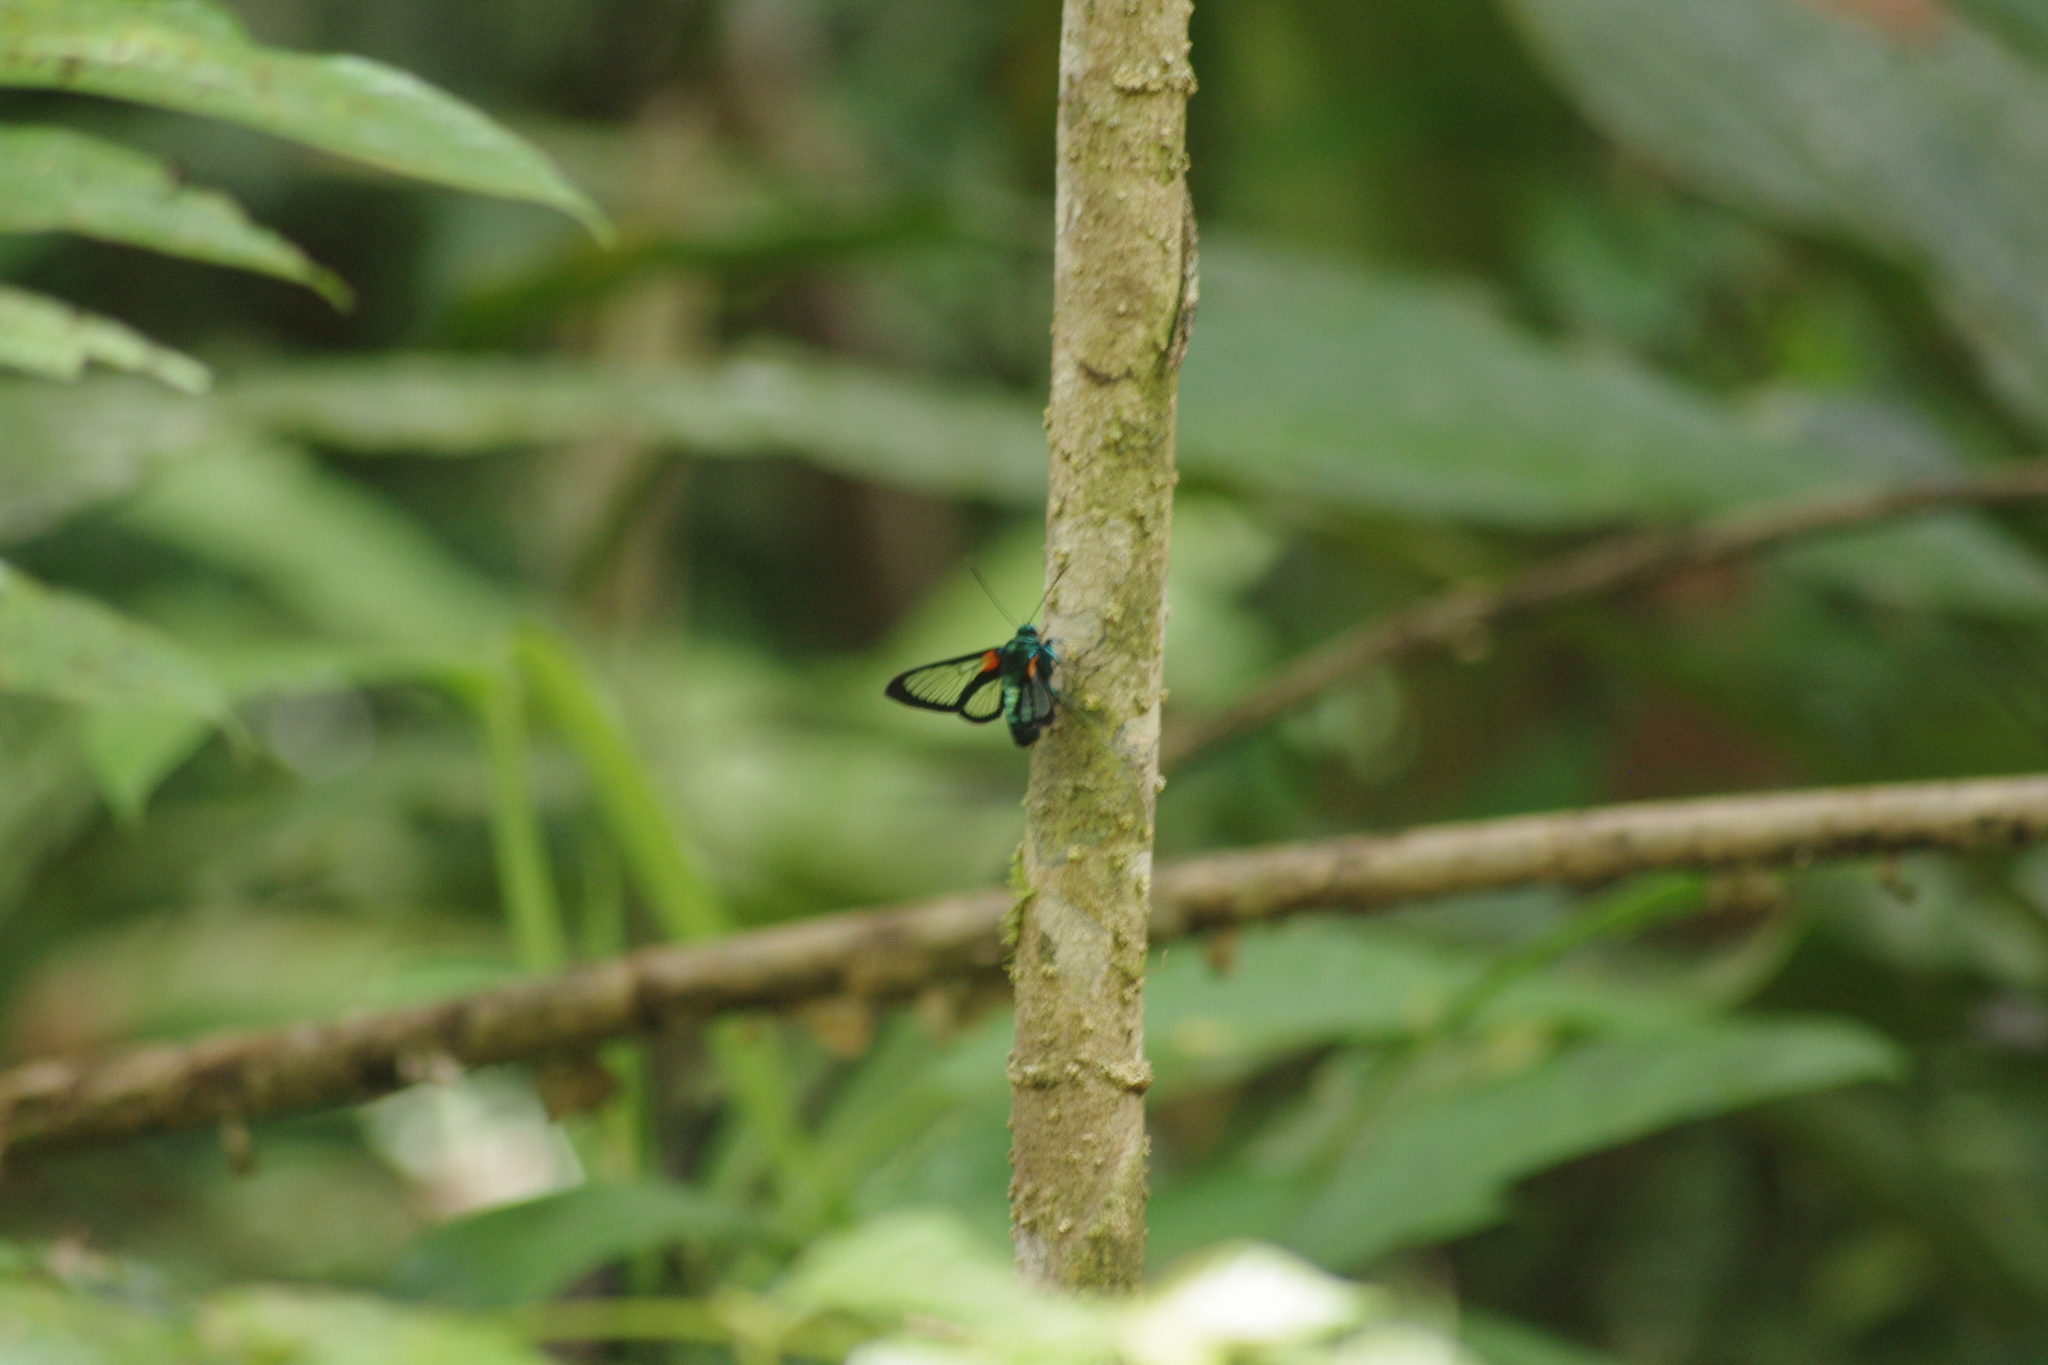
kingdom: Animalia
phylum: Arthropoda
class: Insecta
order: Lepidoptera
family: Erebidae
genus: Cocytia
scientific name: Cocytia durvillii
